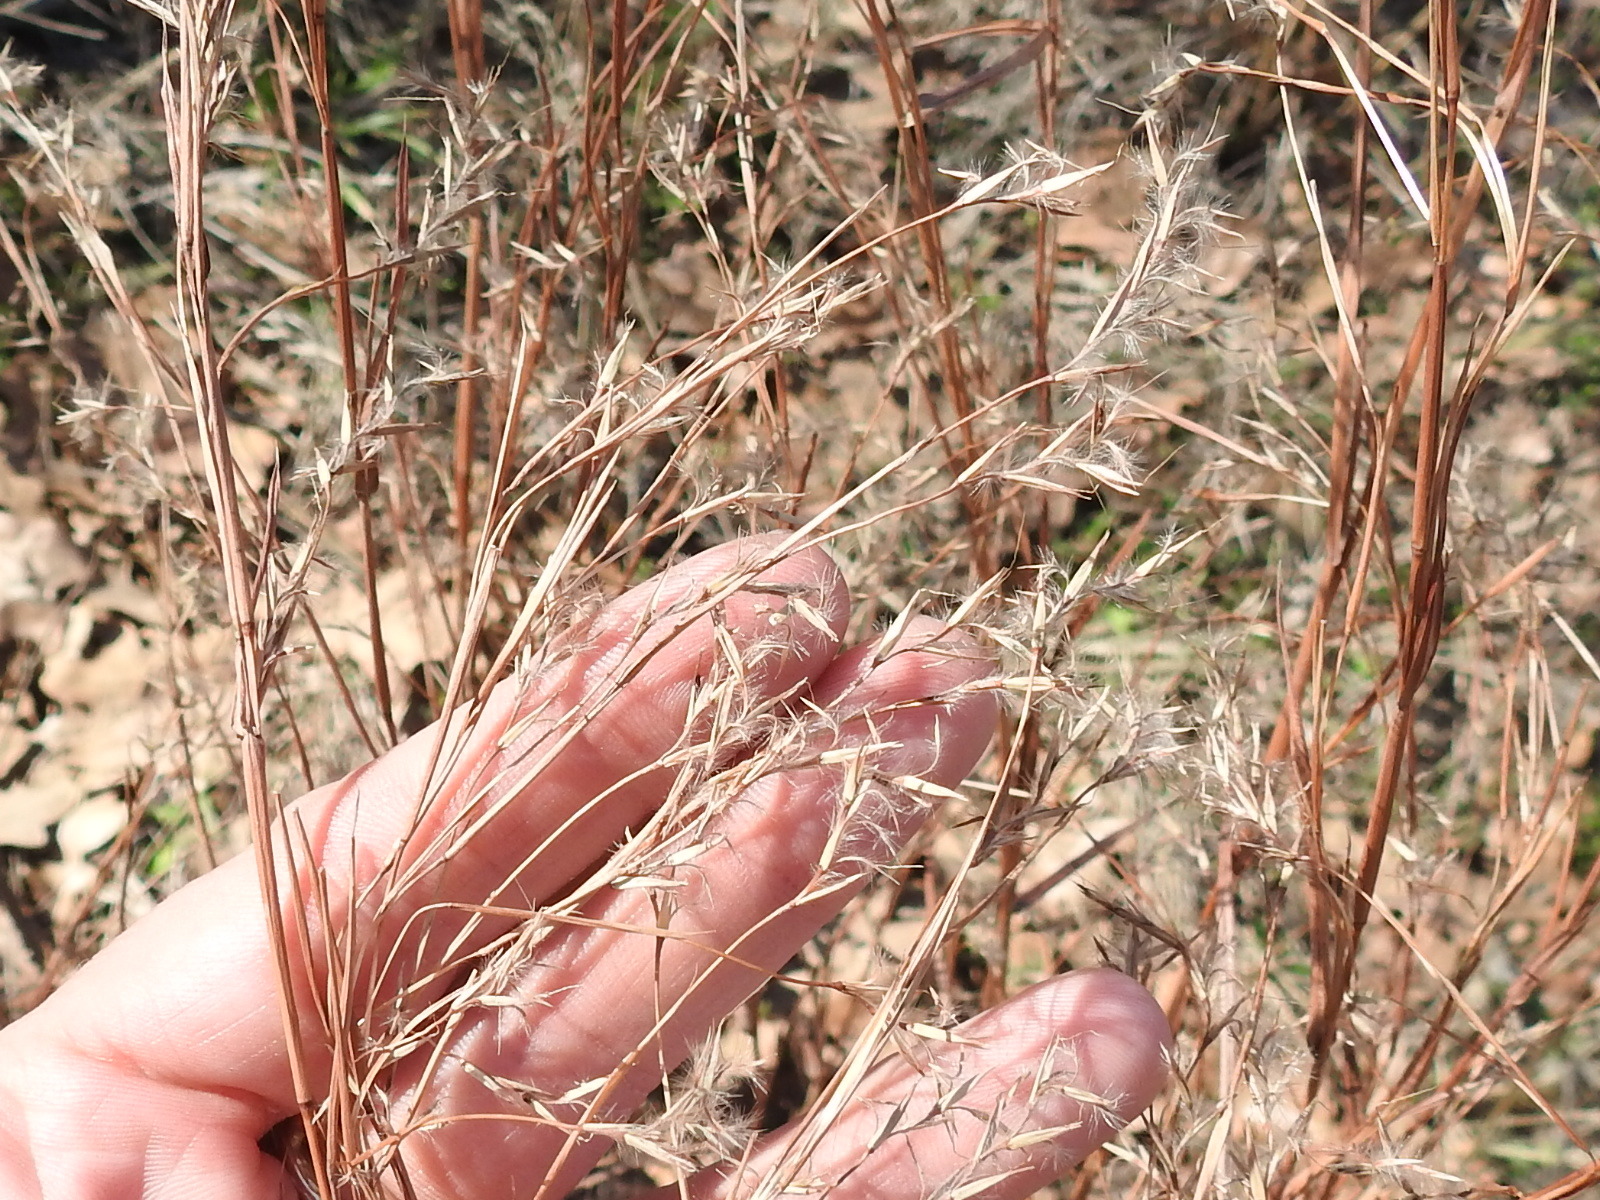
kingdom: Plantae
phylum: Tracheophyta
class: Liliopsida
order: Poales
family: Poaceae
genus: Schizachyrium
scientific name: Schizachyrium scoparium
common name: Little bluestem
